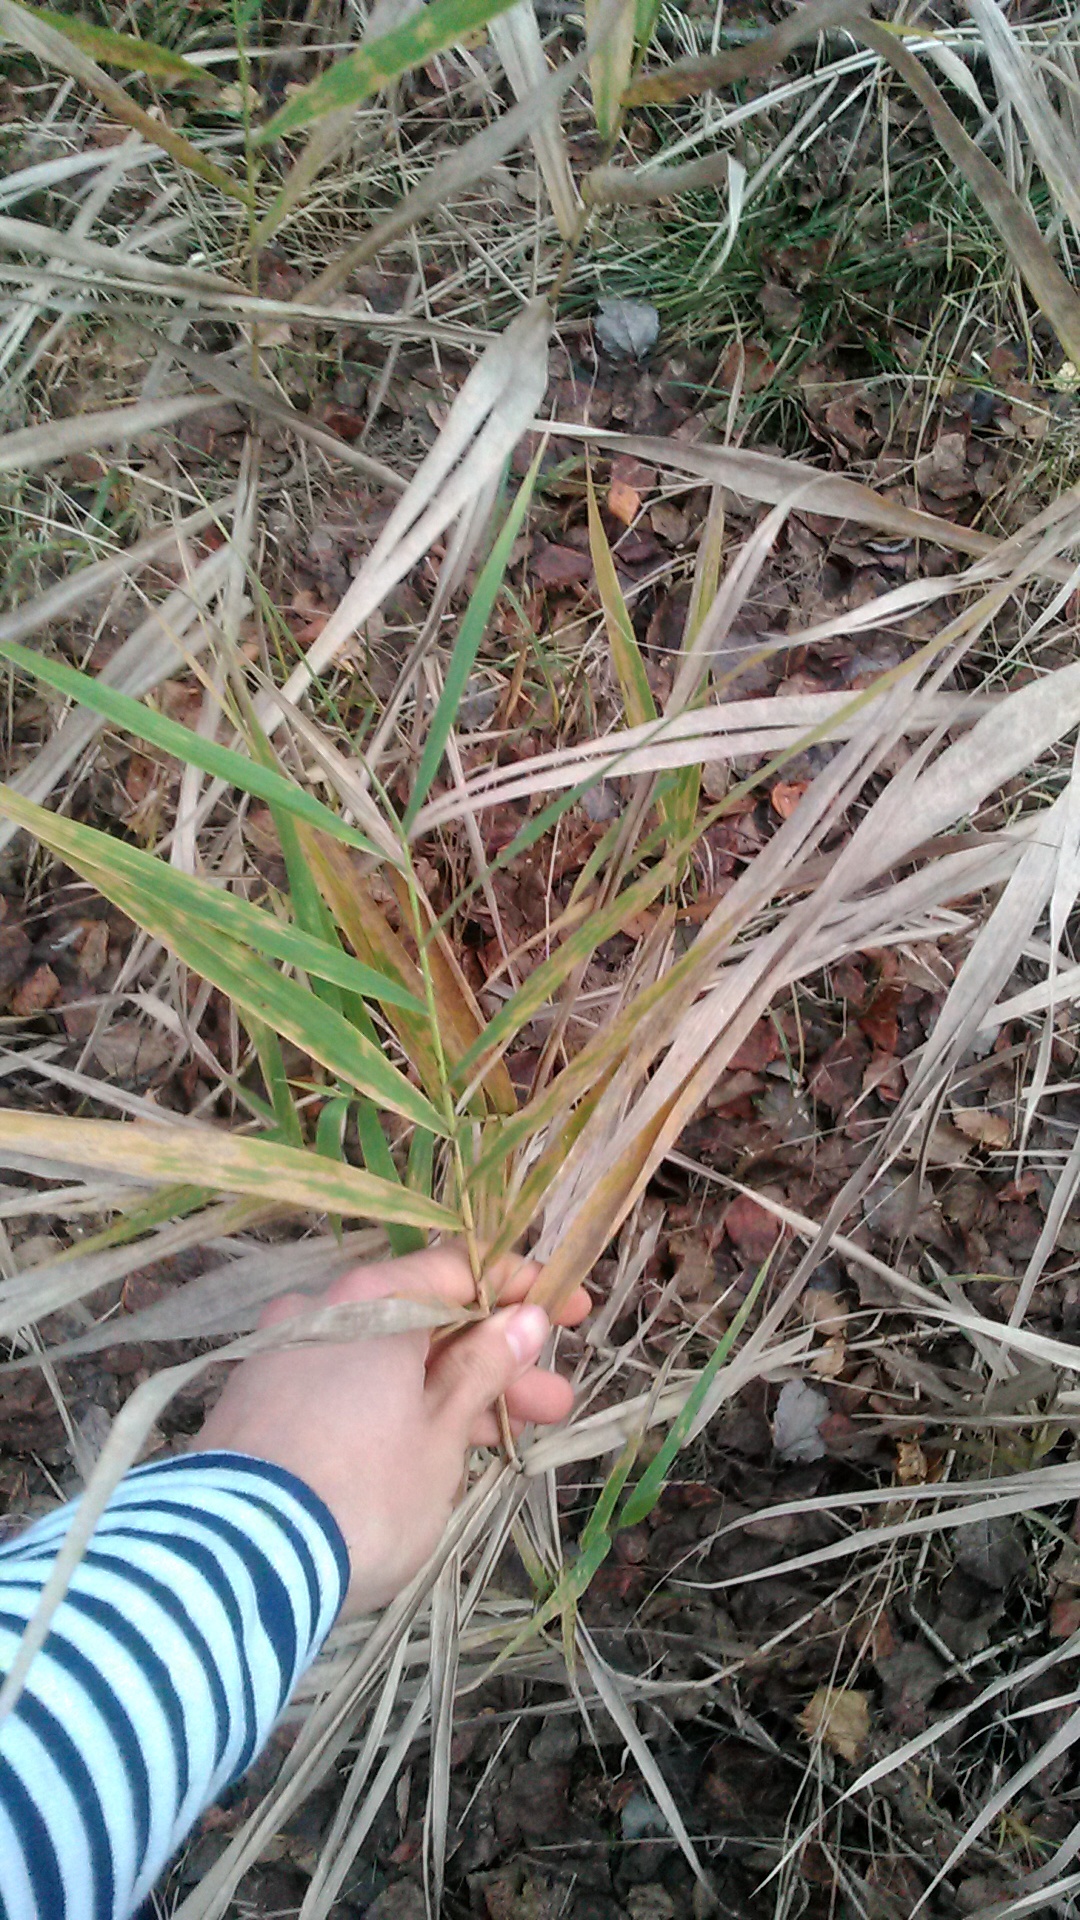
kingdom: Plantae
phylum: Tracheophyta
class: Liliopsida
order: Poales
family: Poaceae
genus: Phragmites
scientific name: Phragmites australis
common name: Common reed
